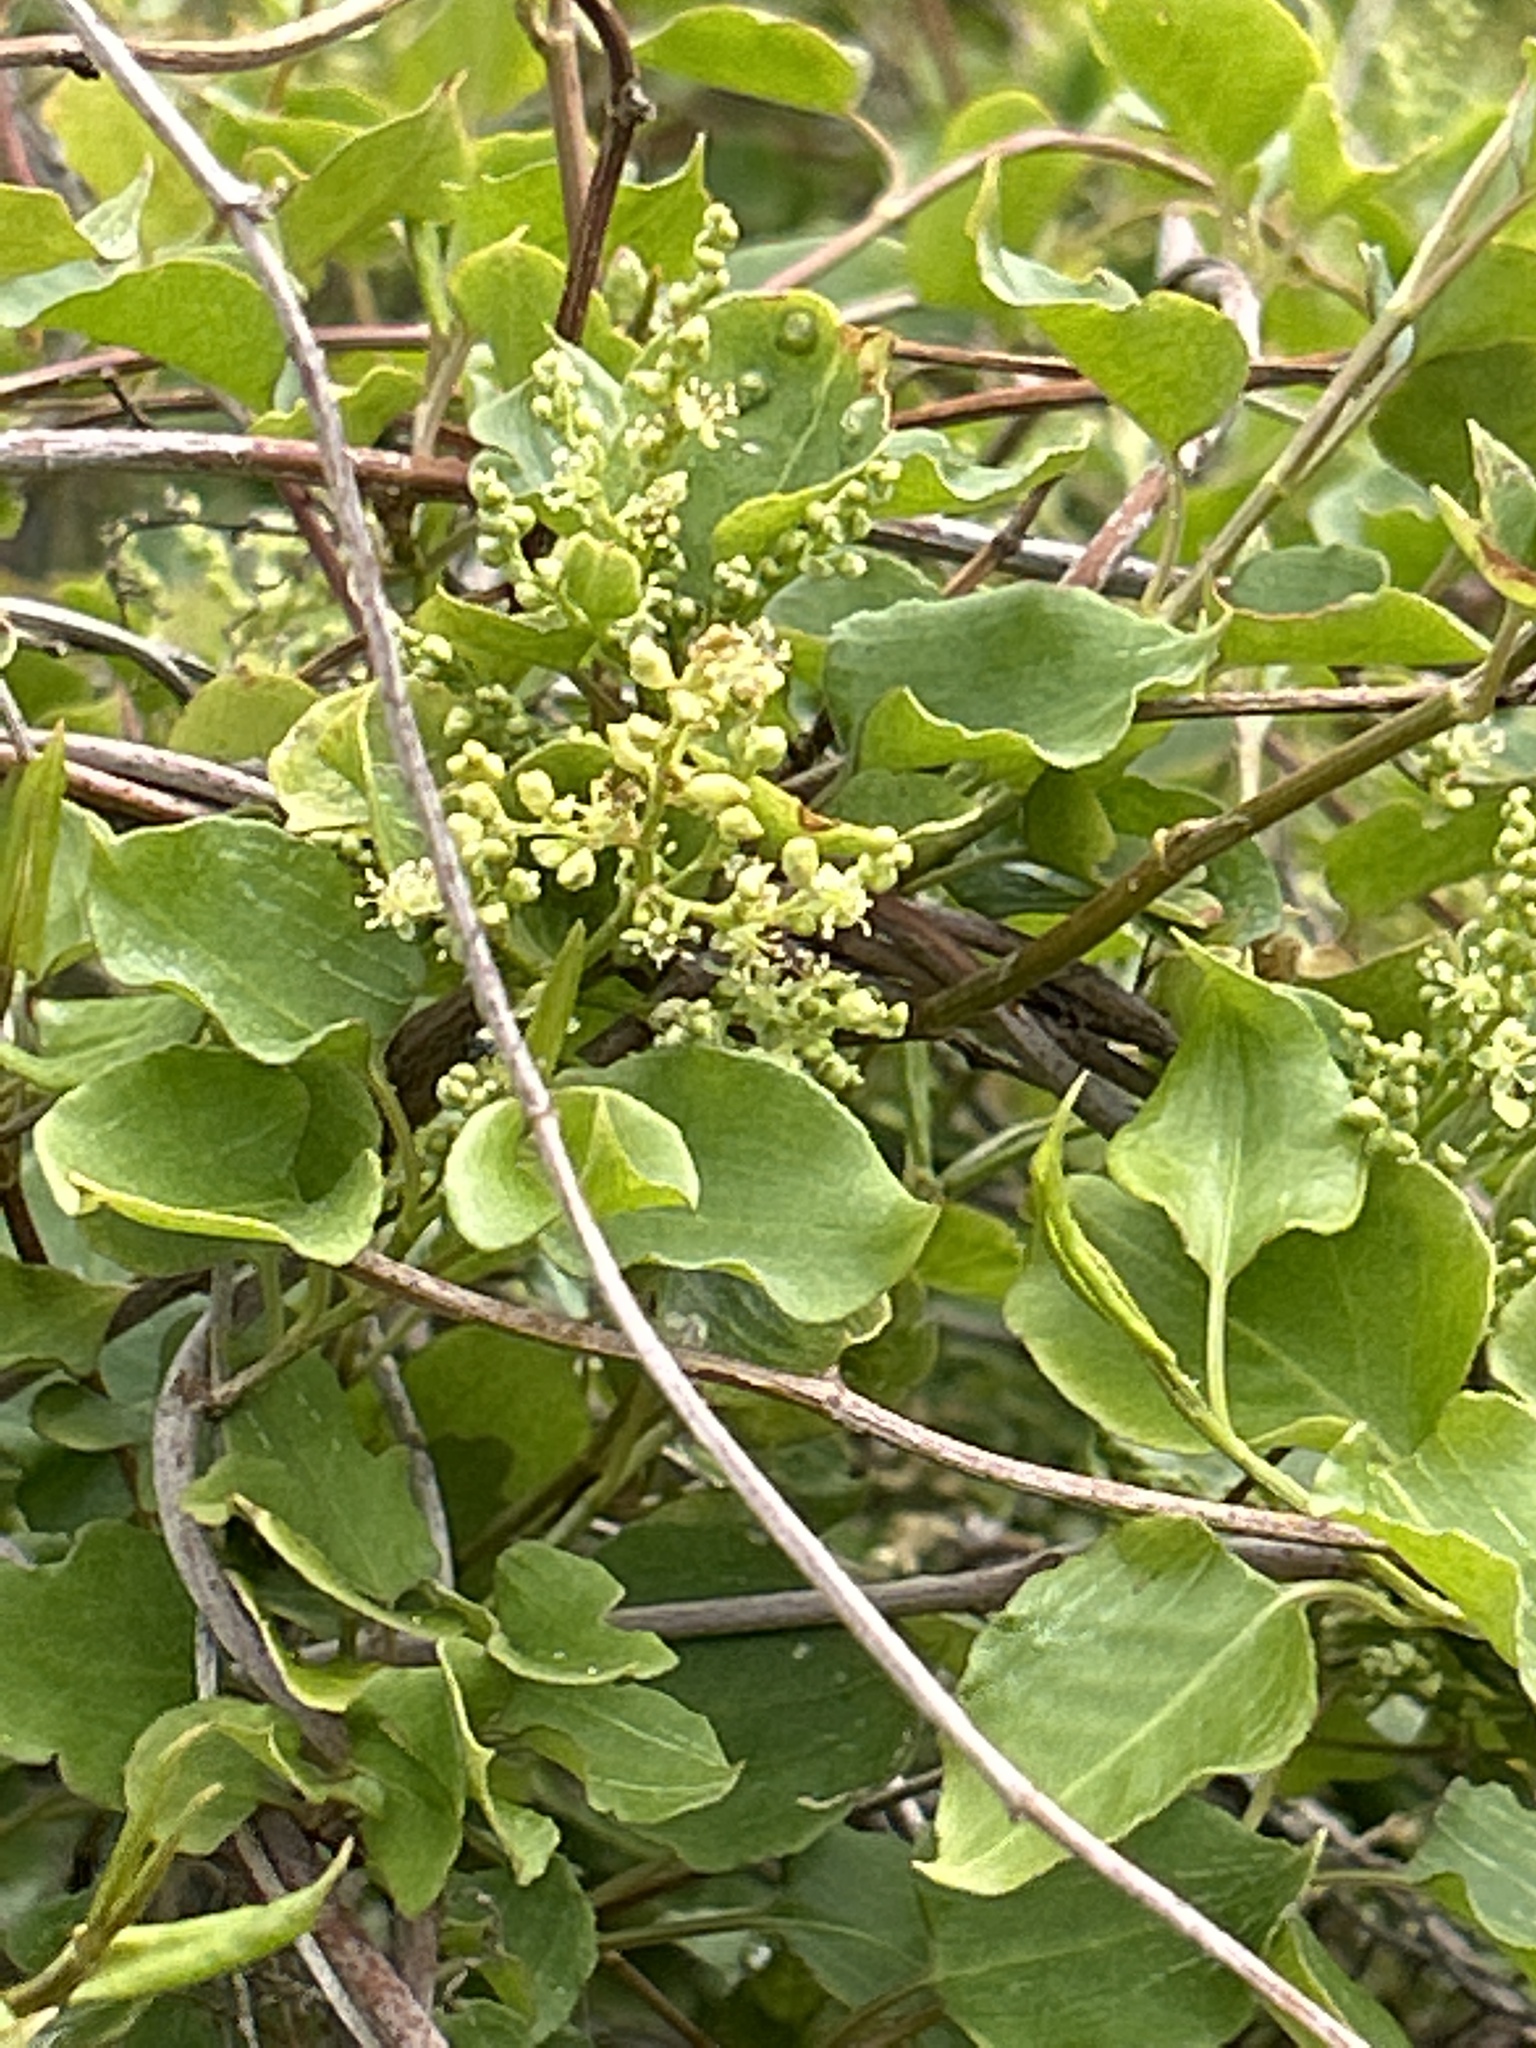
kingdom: Plantae
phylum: Tracheophyta
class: Magnoliopsida
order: Caryophyllales
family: Polygonaceae
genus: Muehlenbeckia
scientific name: Muehlenbeckia australis
